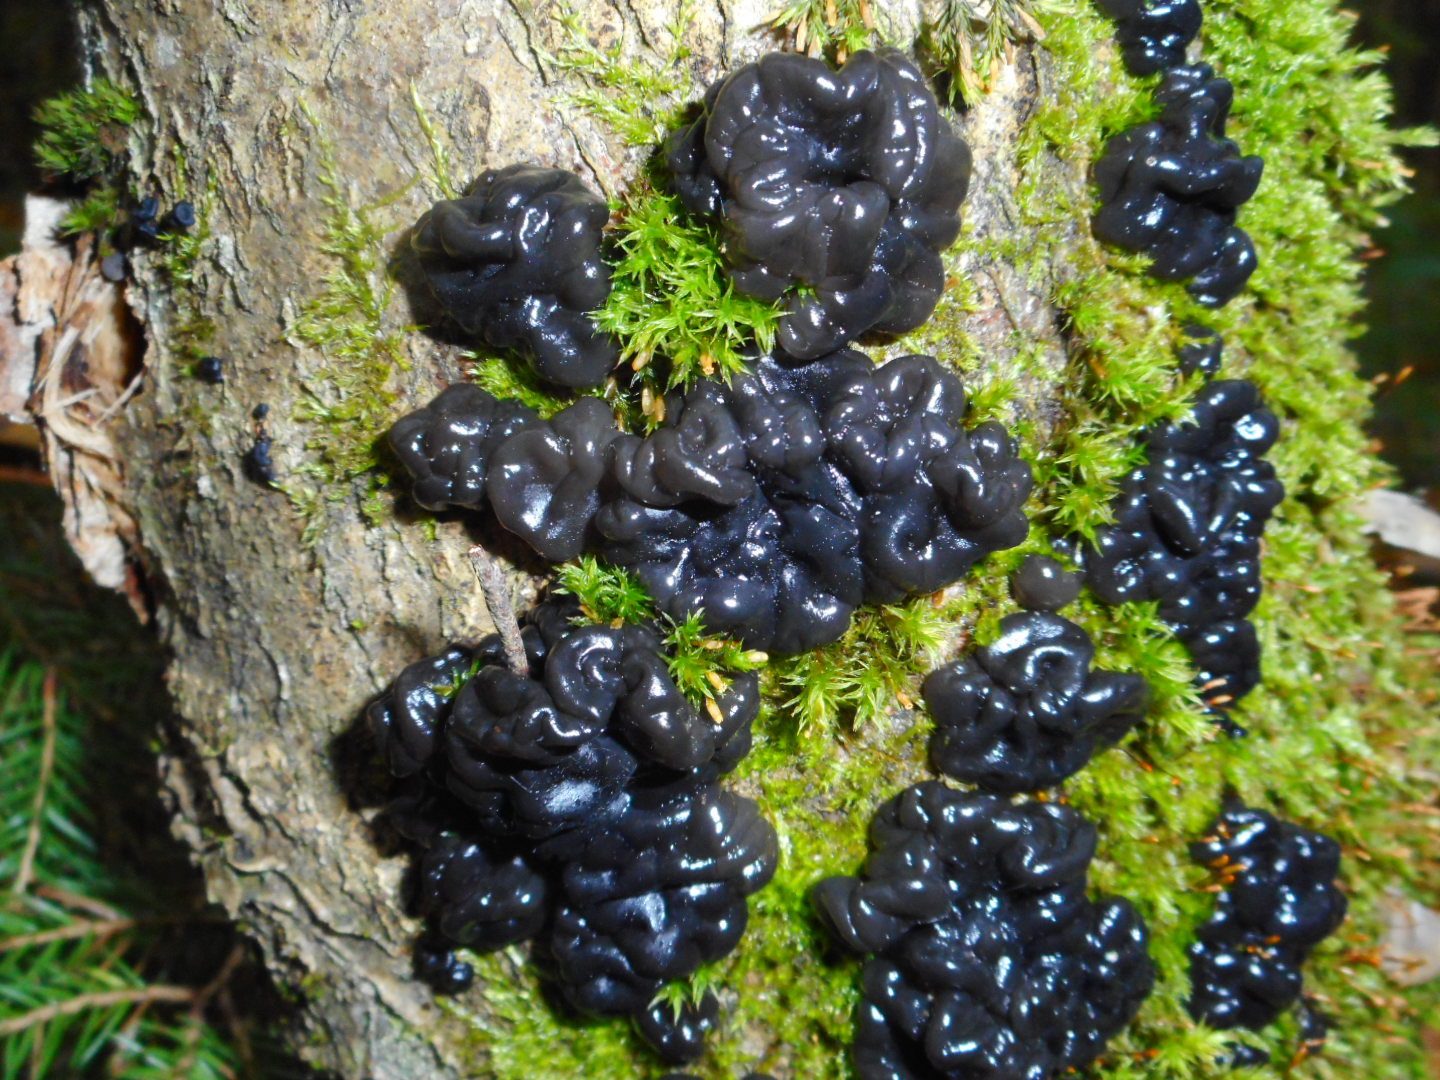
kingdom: Fungi
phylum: Basidiomycota
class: Agaricomycetes
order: Auriculariales
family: Auriculariaceae
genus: Exidia
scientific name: Exidia glandulosa
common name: Witches' butter
